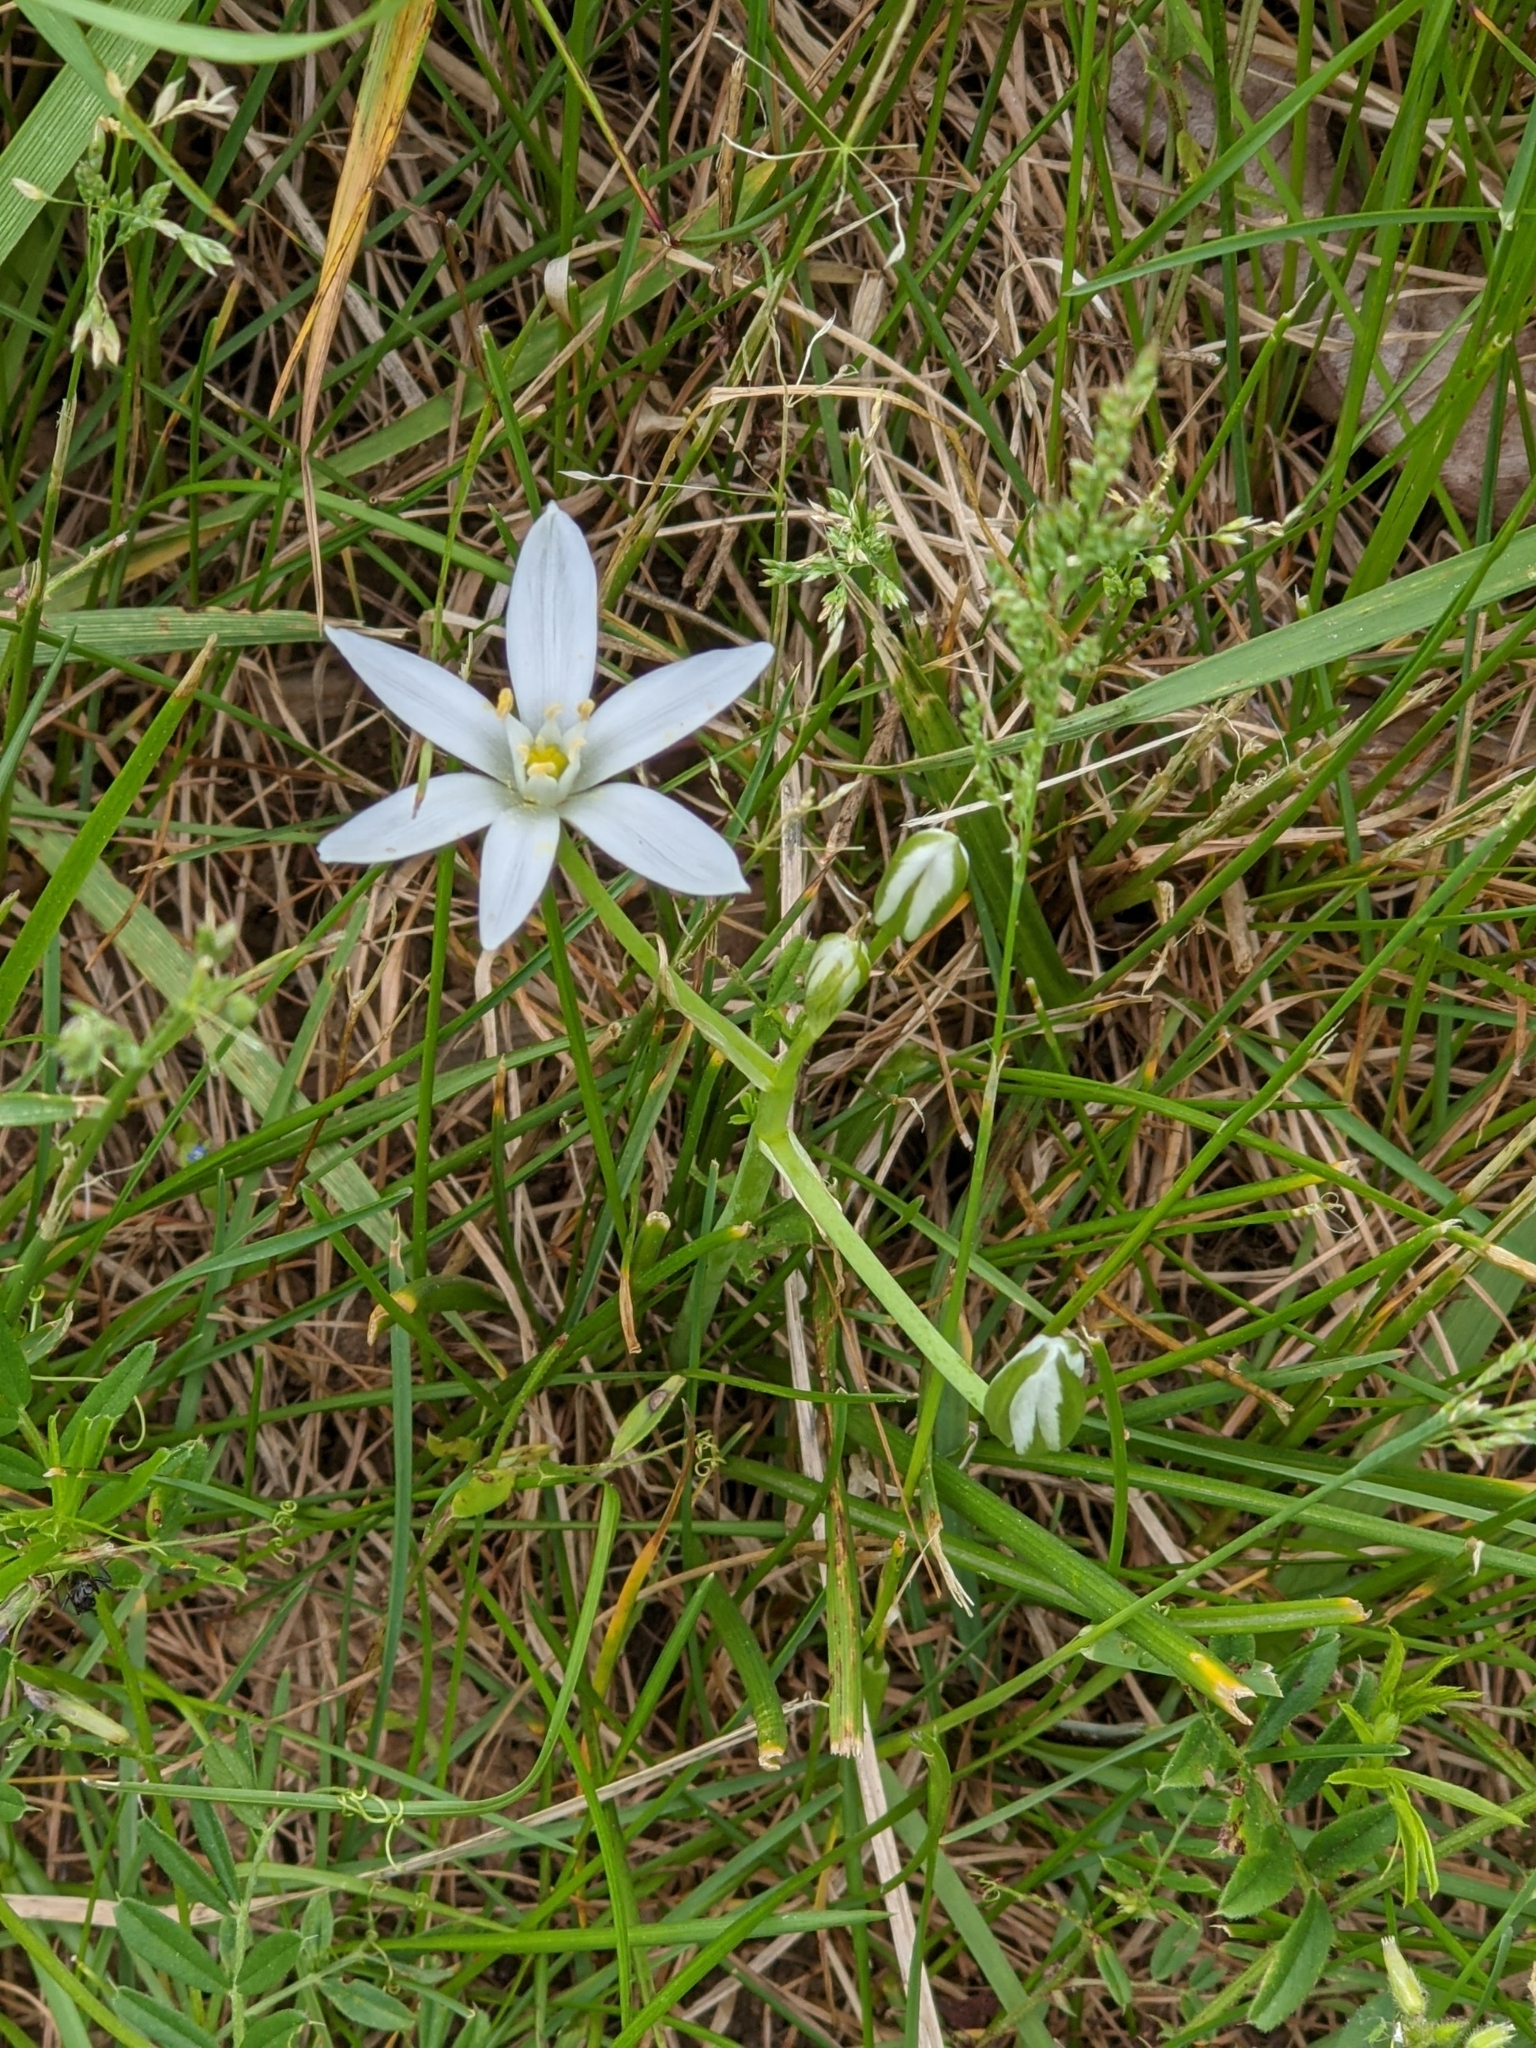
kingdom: Plantae
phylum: Tracheophyta
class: Liliopsida
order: Asparagales
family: Asparagaceae
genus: Ornithogalum
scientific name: Ornithogalum umbellatum
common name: Garden star-of-bethlehem
